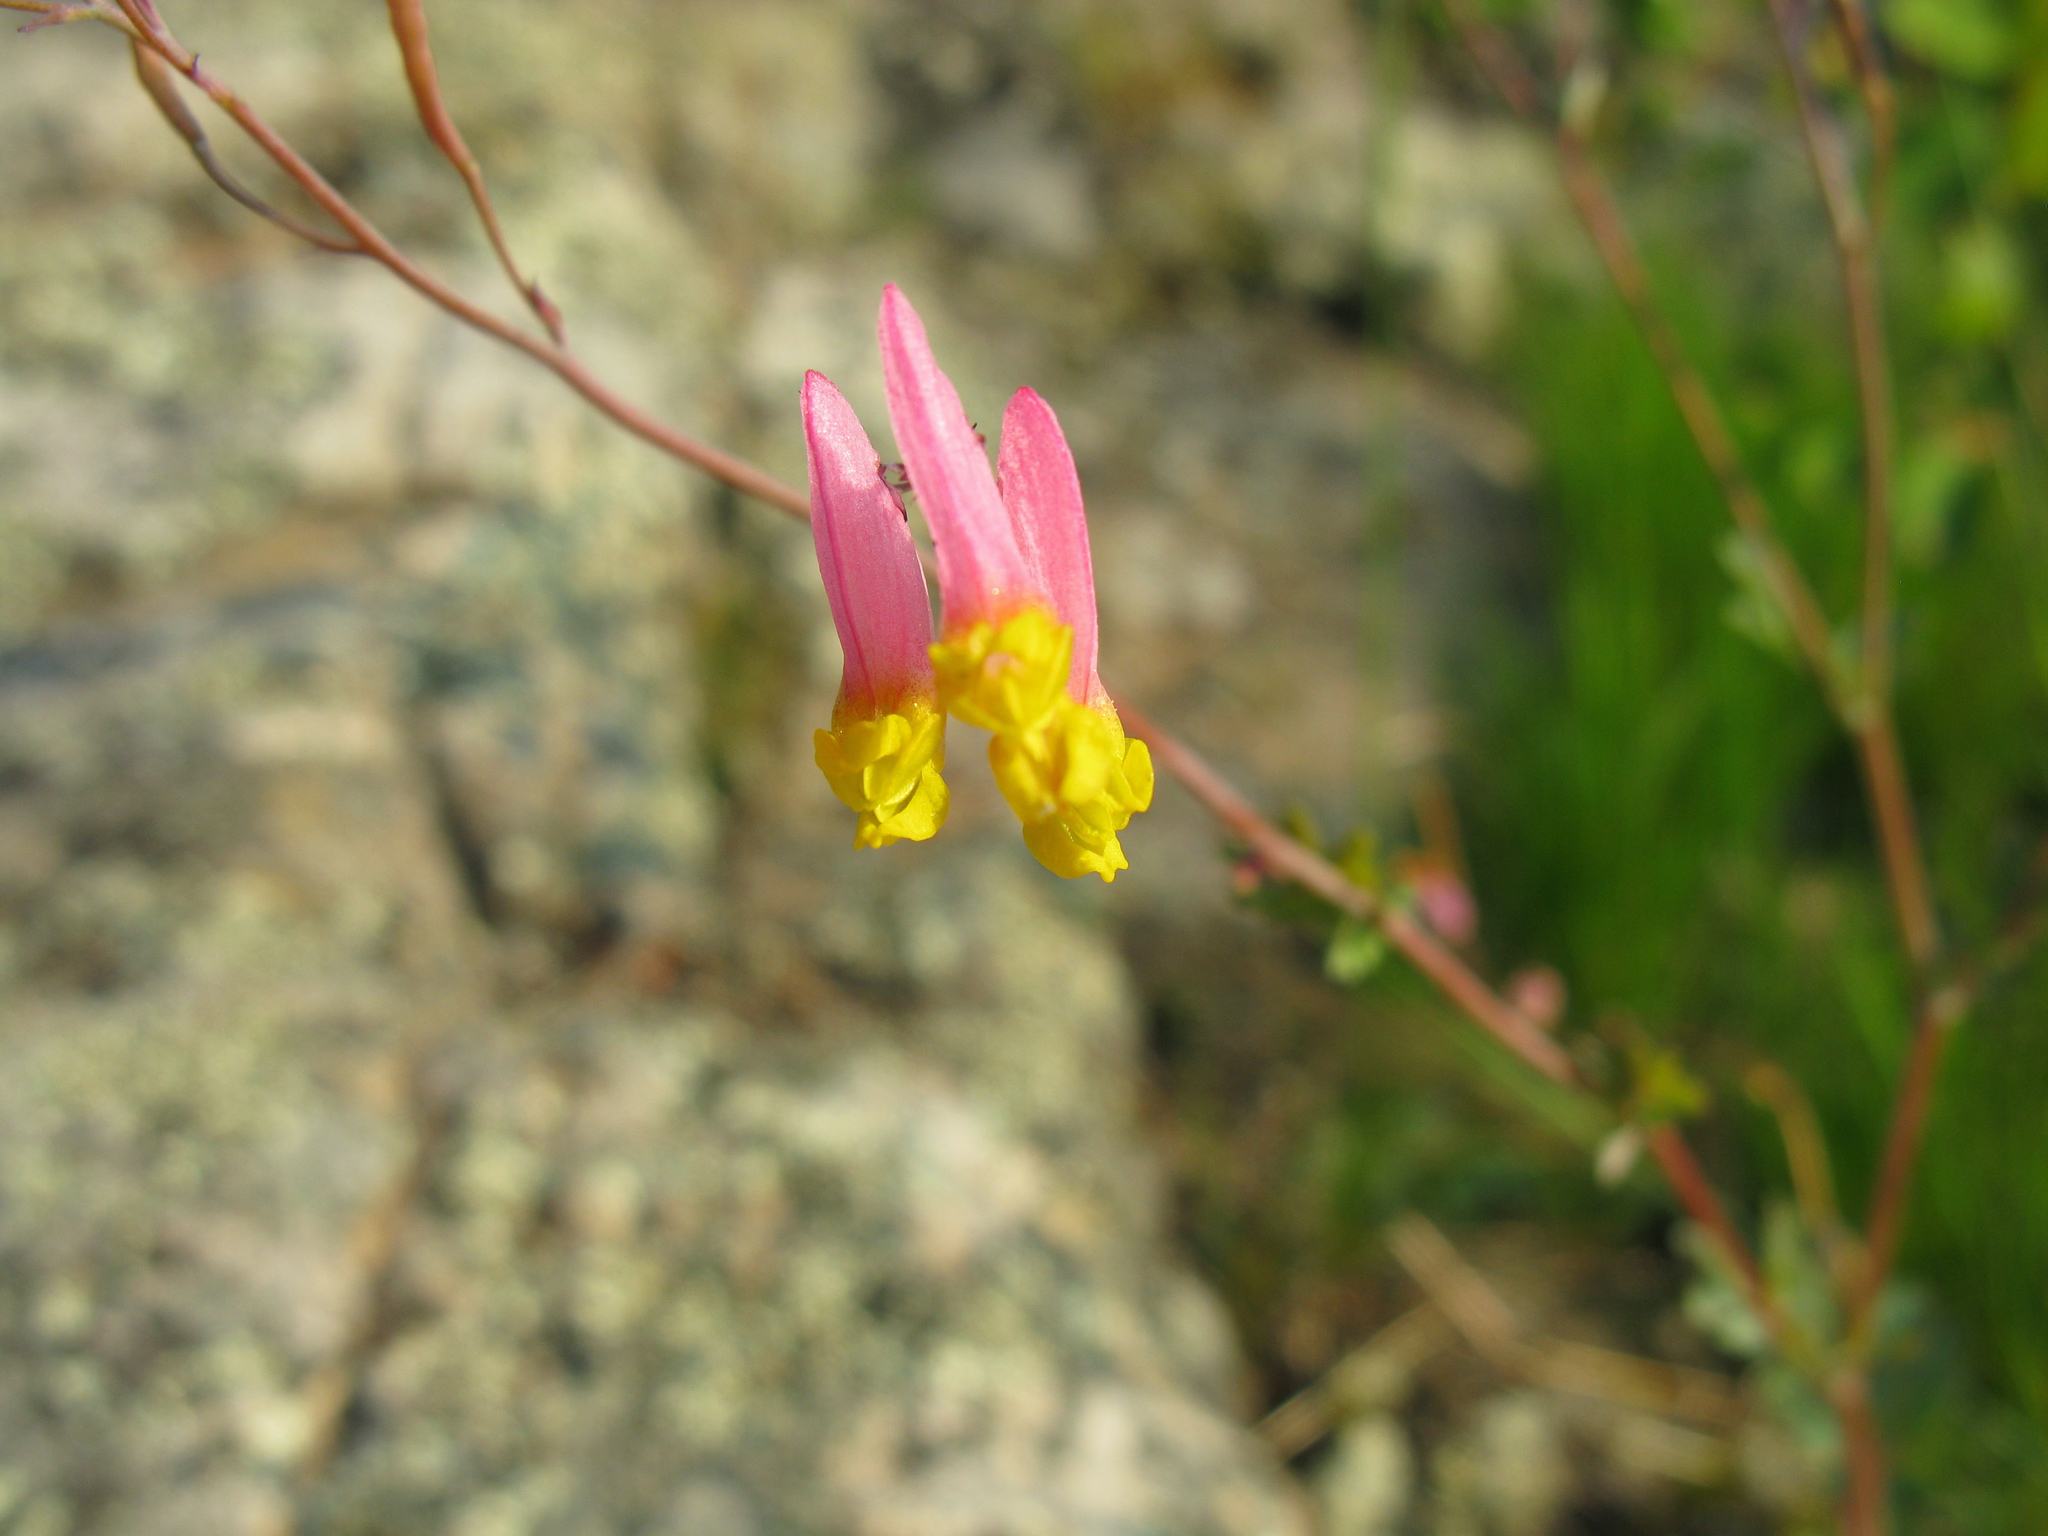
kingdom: Plantae
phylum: Tracheophyta
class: Magnoliopsida
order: Ranunculales
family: Papaveraceae
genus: Capnoides
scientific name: Capnoides sempervirens
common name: Rock harlequin
